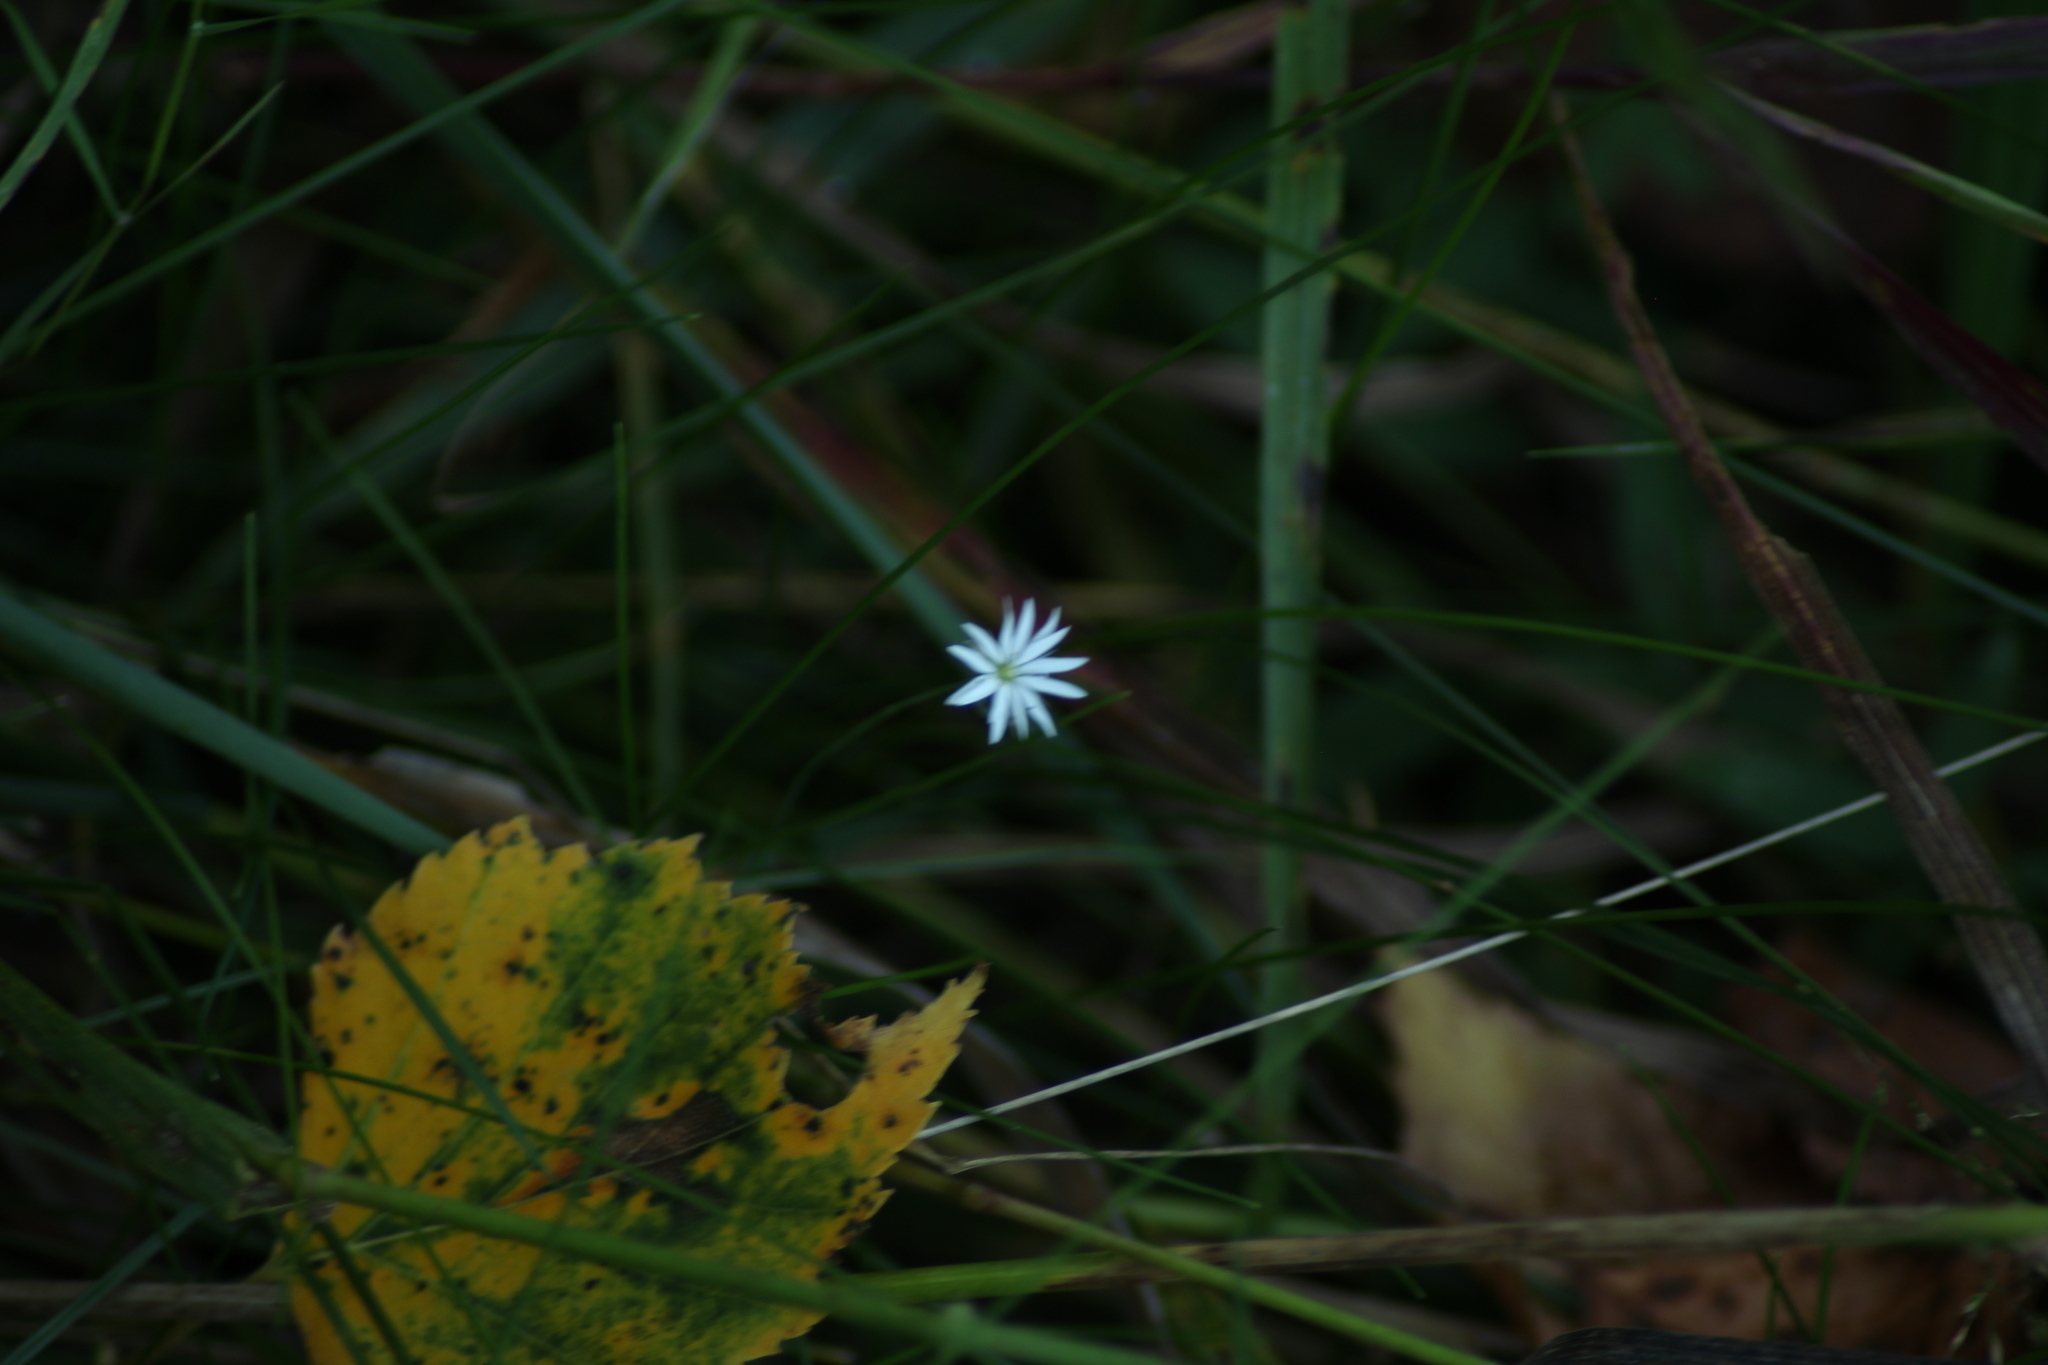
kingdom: Plantae
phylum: Tracheophyta
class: Magnoliopsida
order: Caryophyllales
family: Caryophyllaceae
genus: Stellaria
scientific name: Stellaria graminea
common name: Grass-like starwort
